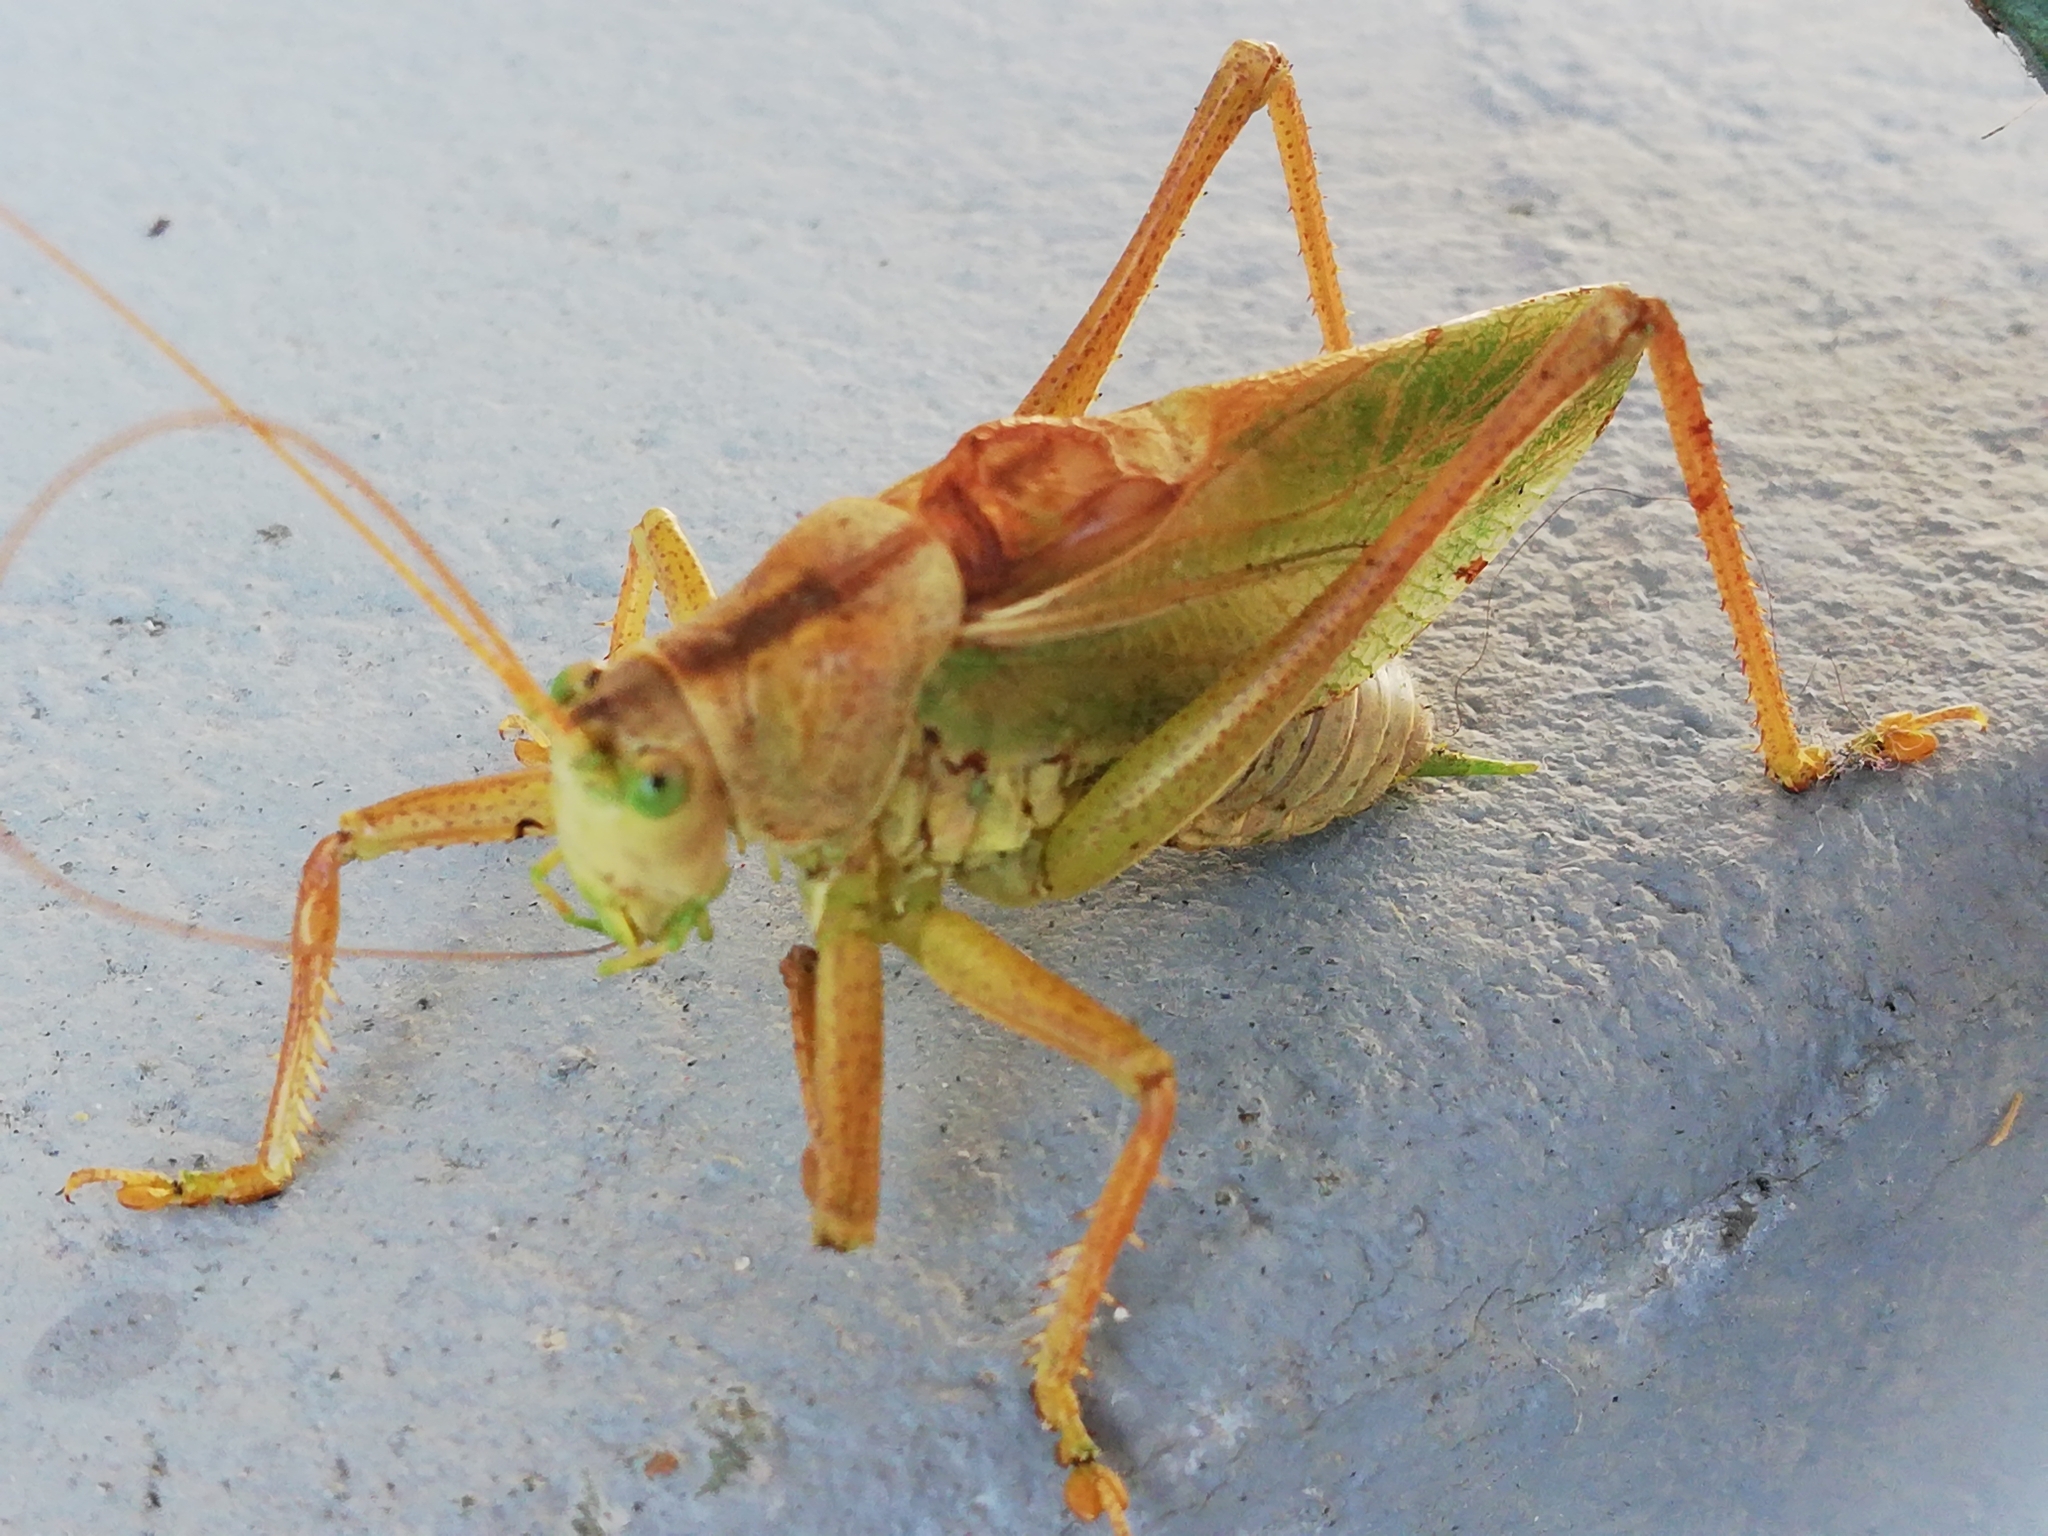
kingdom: Animalia
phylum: Arthropoda
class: Insecta
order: Orthoptera
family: Tettigoniidae
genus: Tettigonia
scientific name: Tettigonia cantans
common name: Upland green bush-cricket
